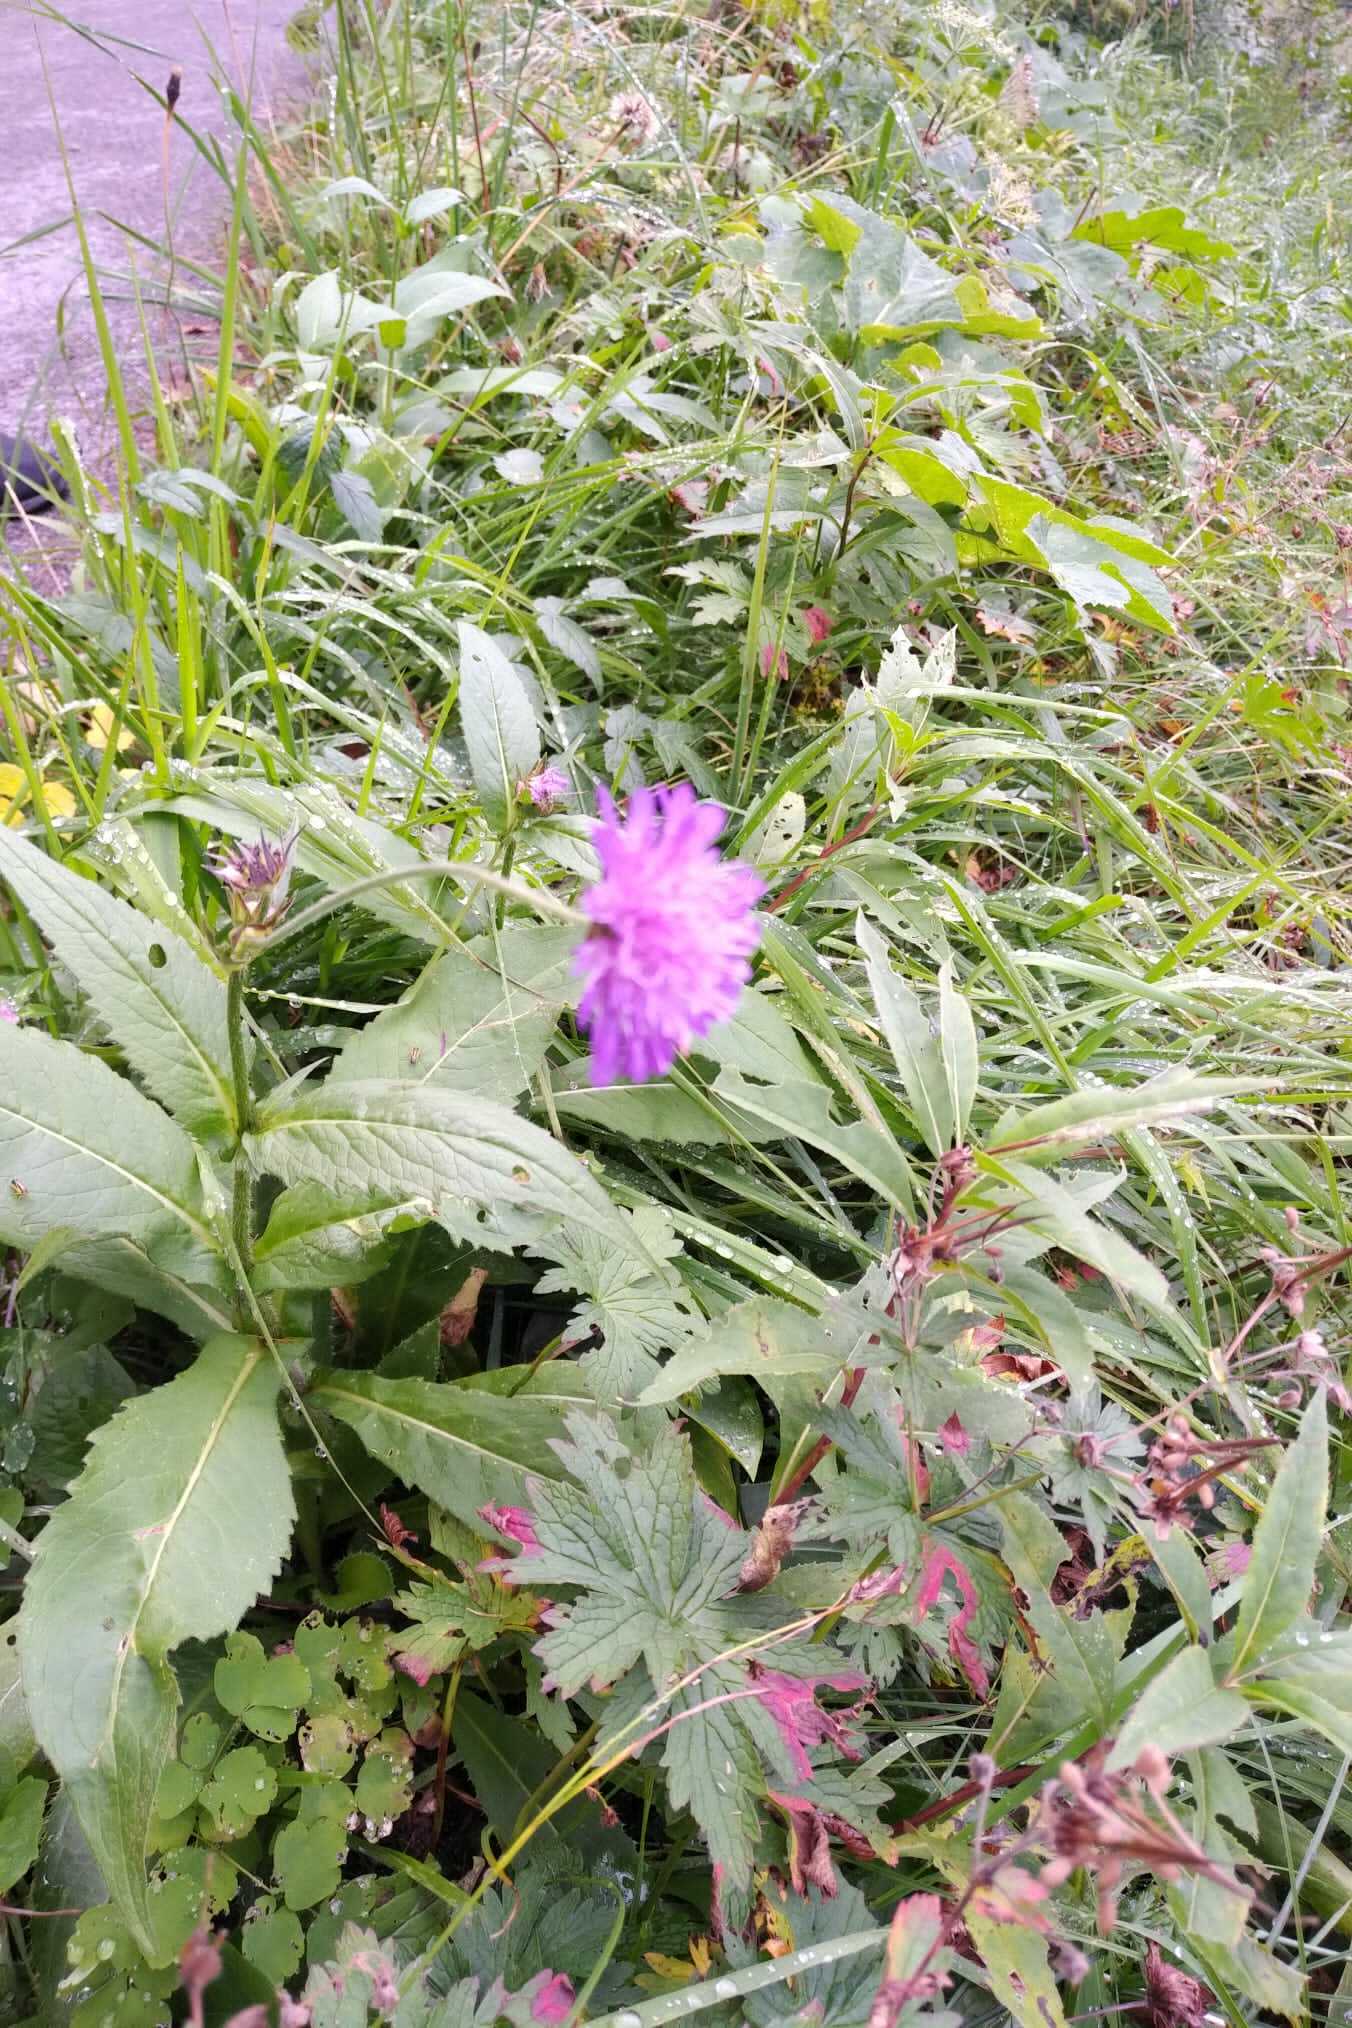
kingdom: Plantae
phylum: Tracheophyta
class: Magnoliopsida
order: Dipsacales
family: Caprifoliaceae
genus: Knautia
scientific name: Knautia dipsacifolia
